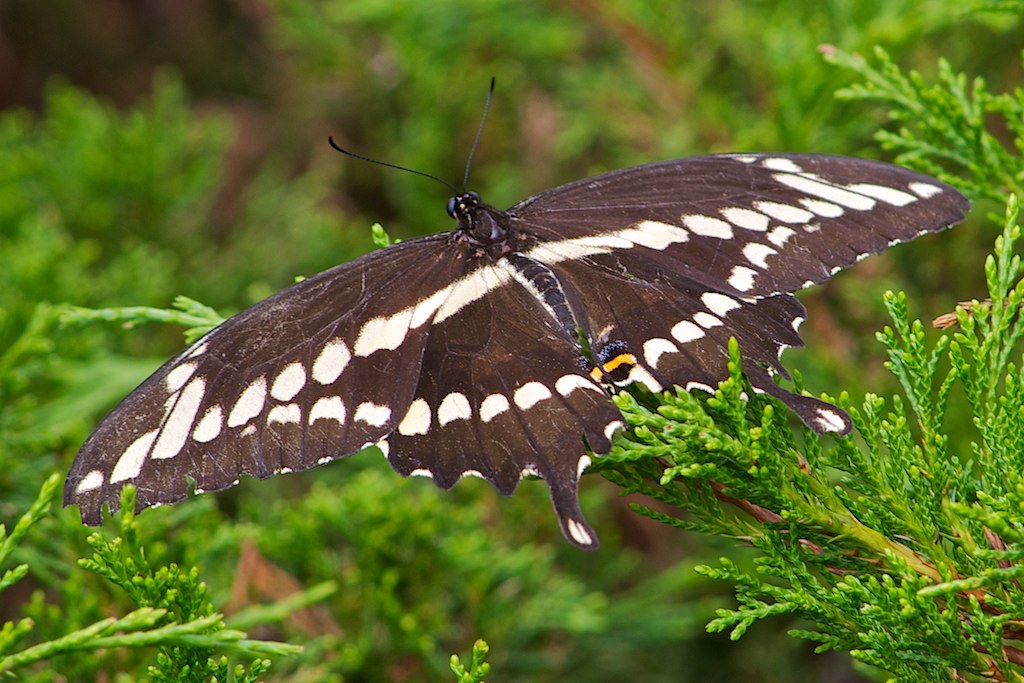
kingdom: Animalia
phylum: Arthropoda
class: Insecta
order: Lepidoptera
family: Papilionidae
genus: Papilio
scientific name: Papilio cresphontes
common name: Giant swallowtail
